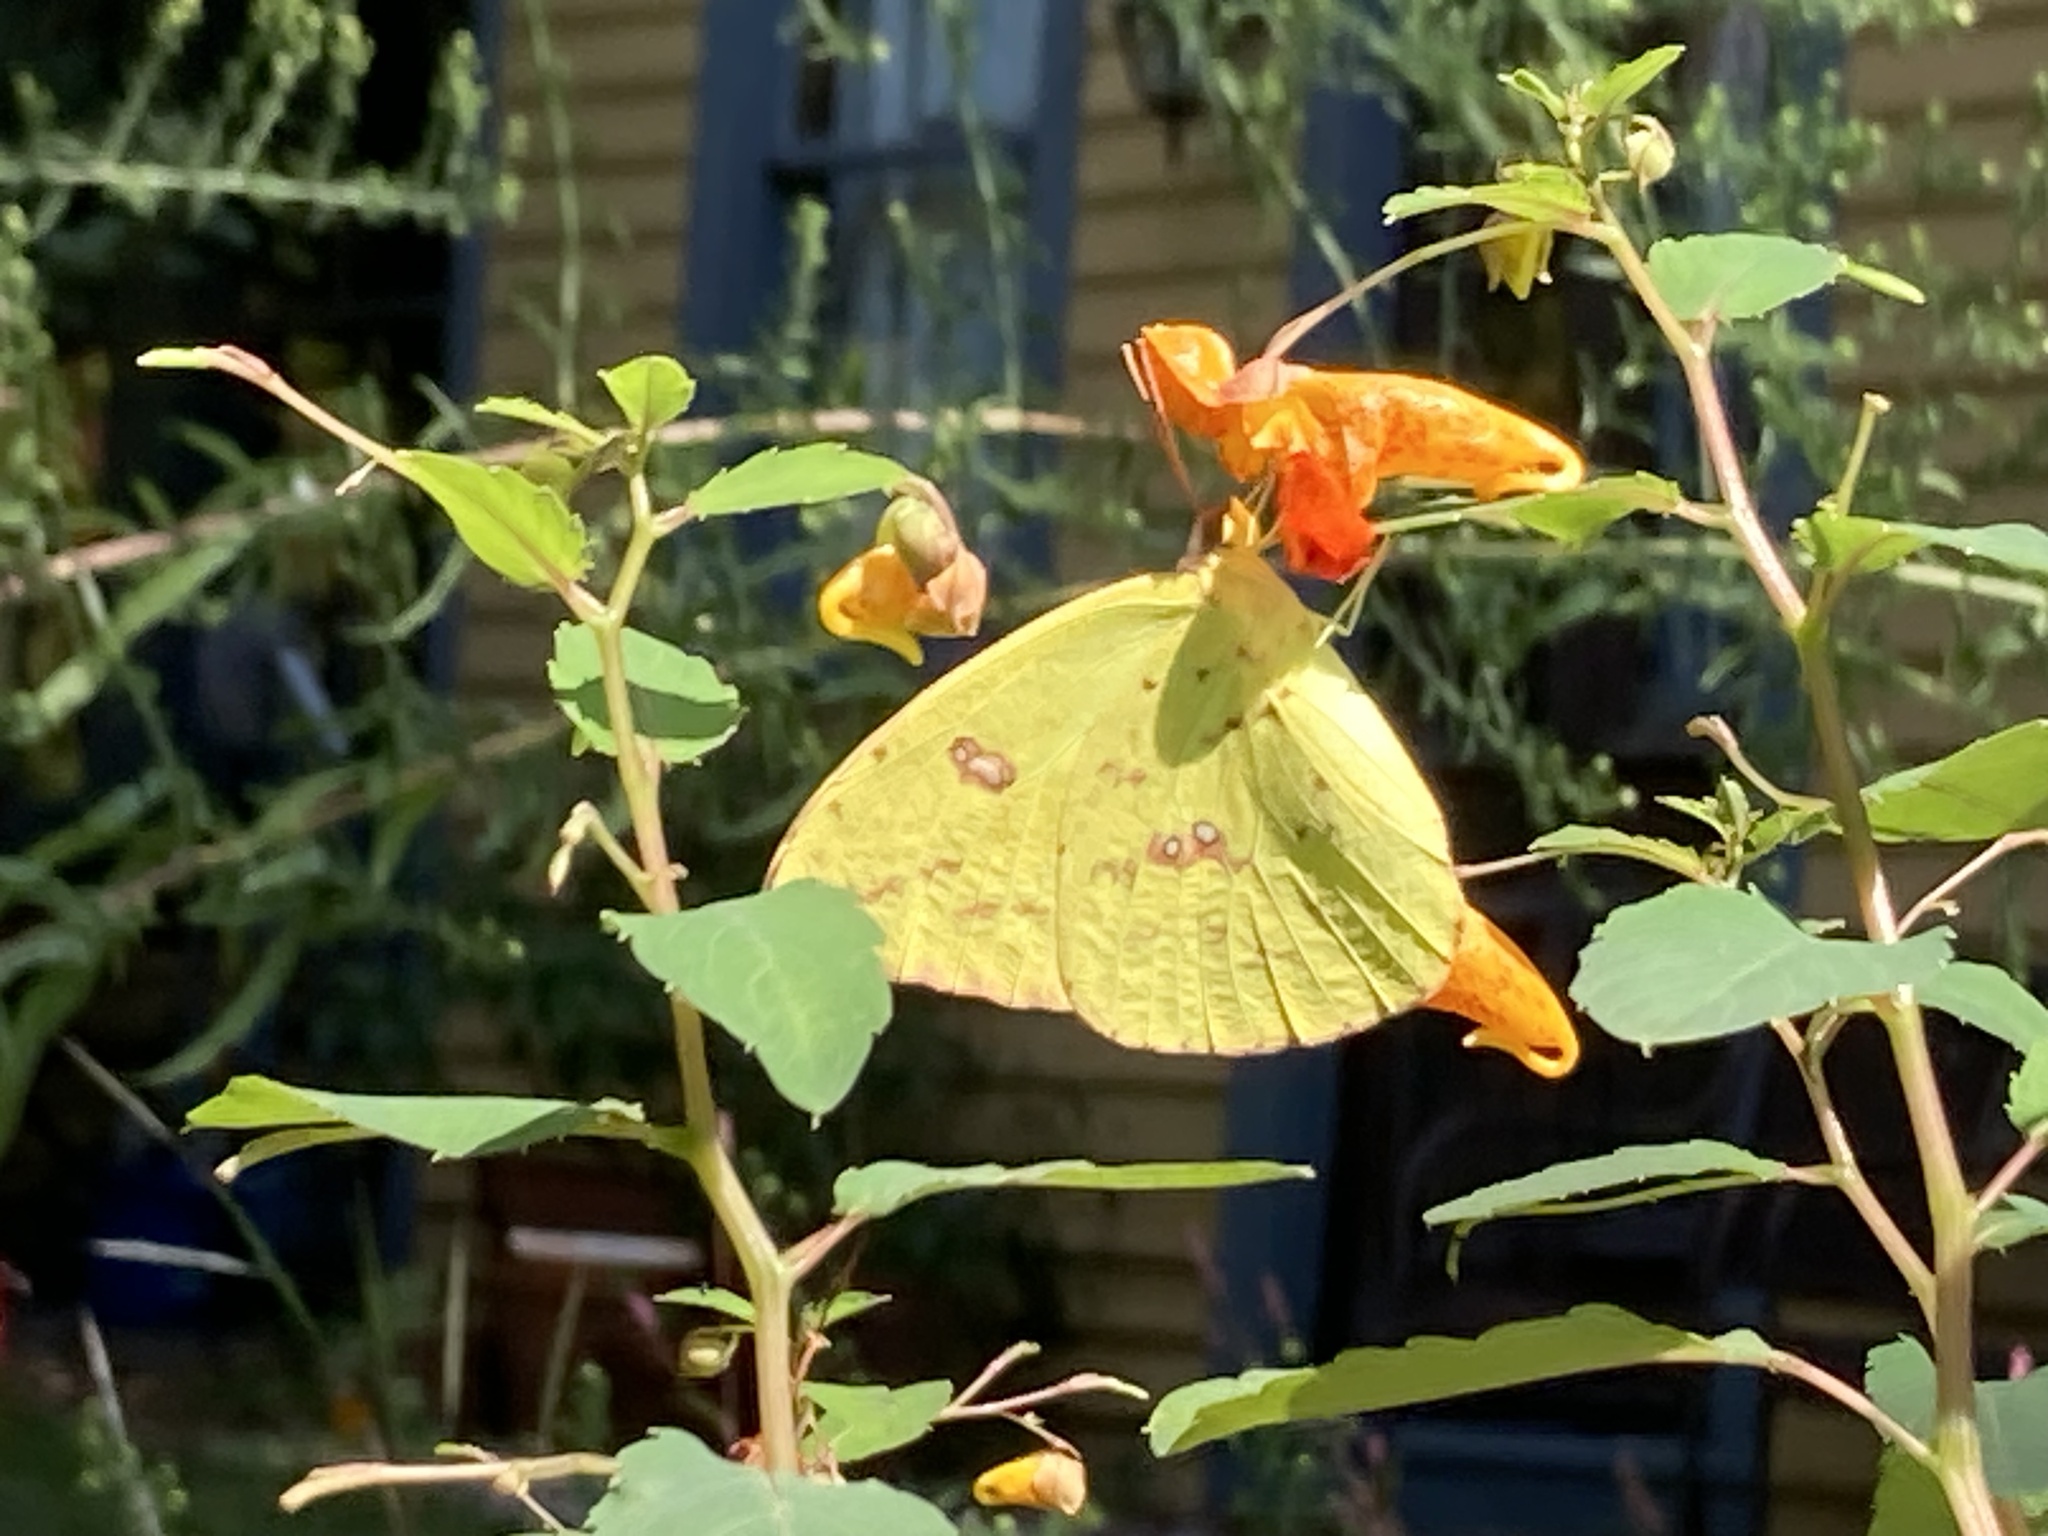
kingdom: Animalia
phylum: Arthropoda
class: Insecta
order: Lepidoptera
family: Pieridae
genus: Phoebis
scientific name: Phoebis sennae
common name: Cloudless sulphur
